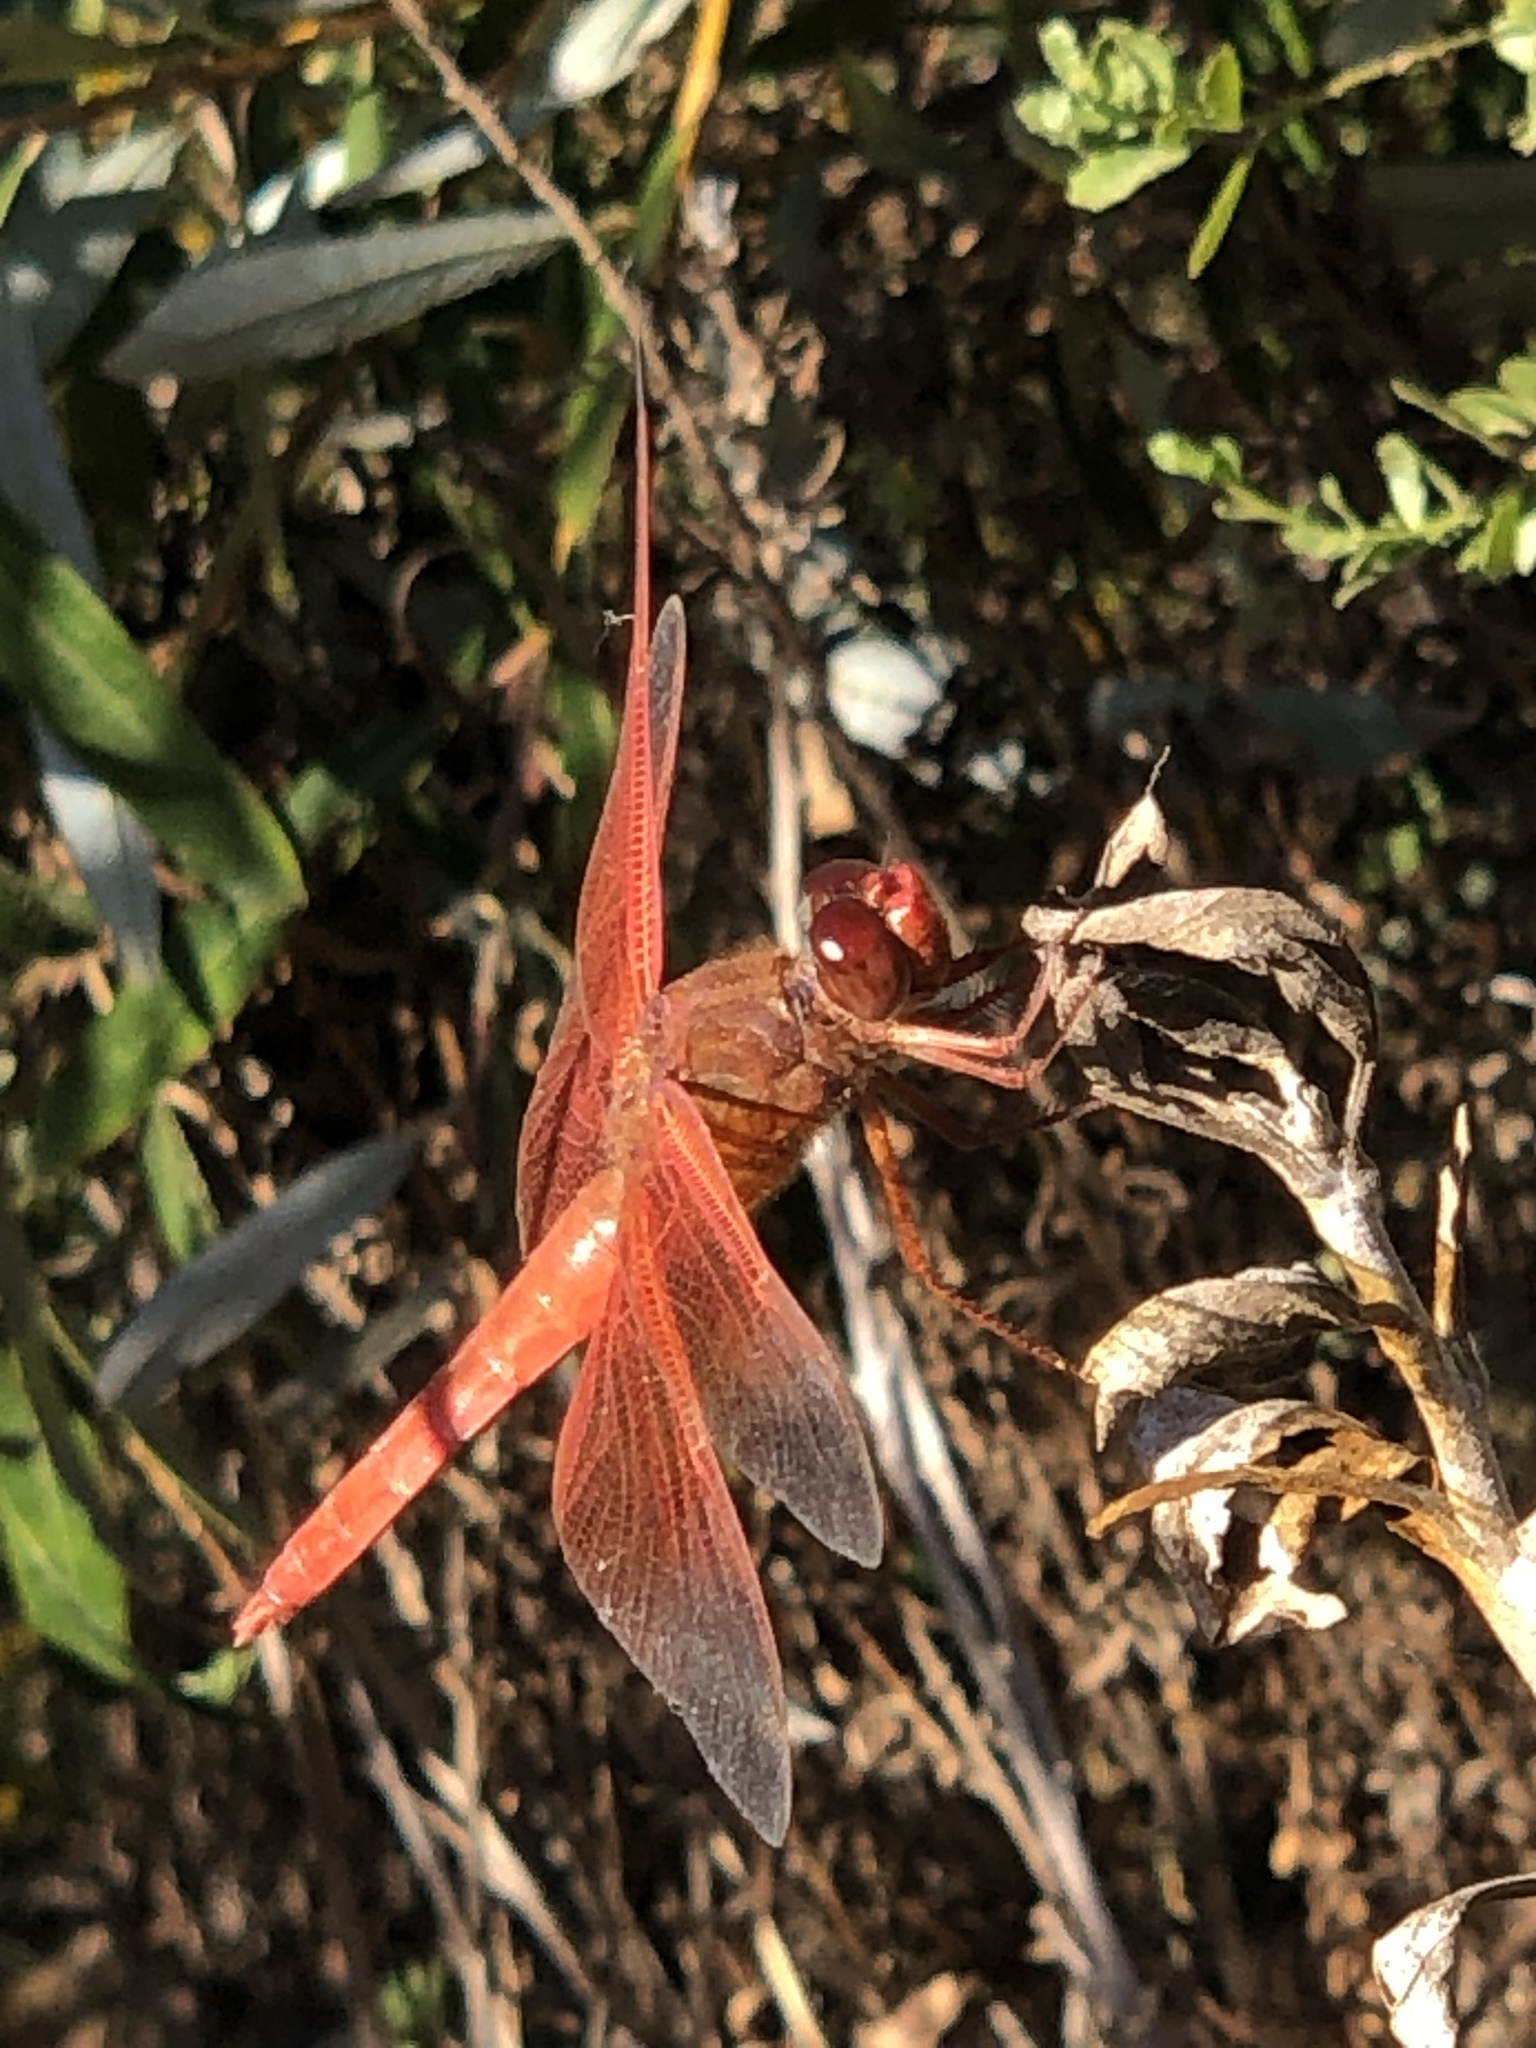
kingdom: Animalia
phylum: Arthropoda
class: Insecta
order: Odonata
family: Libellulidae
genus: Libellula
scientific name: Libellula saturata
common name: Flame skimmer
